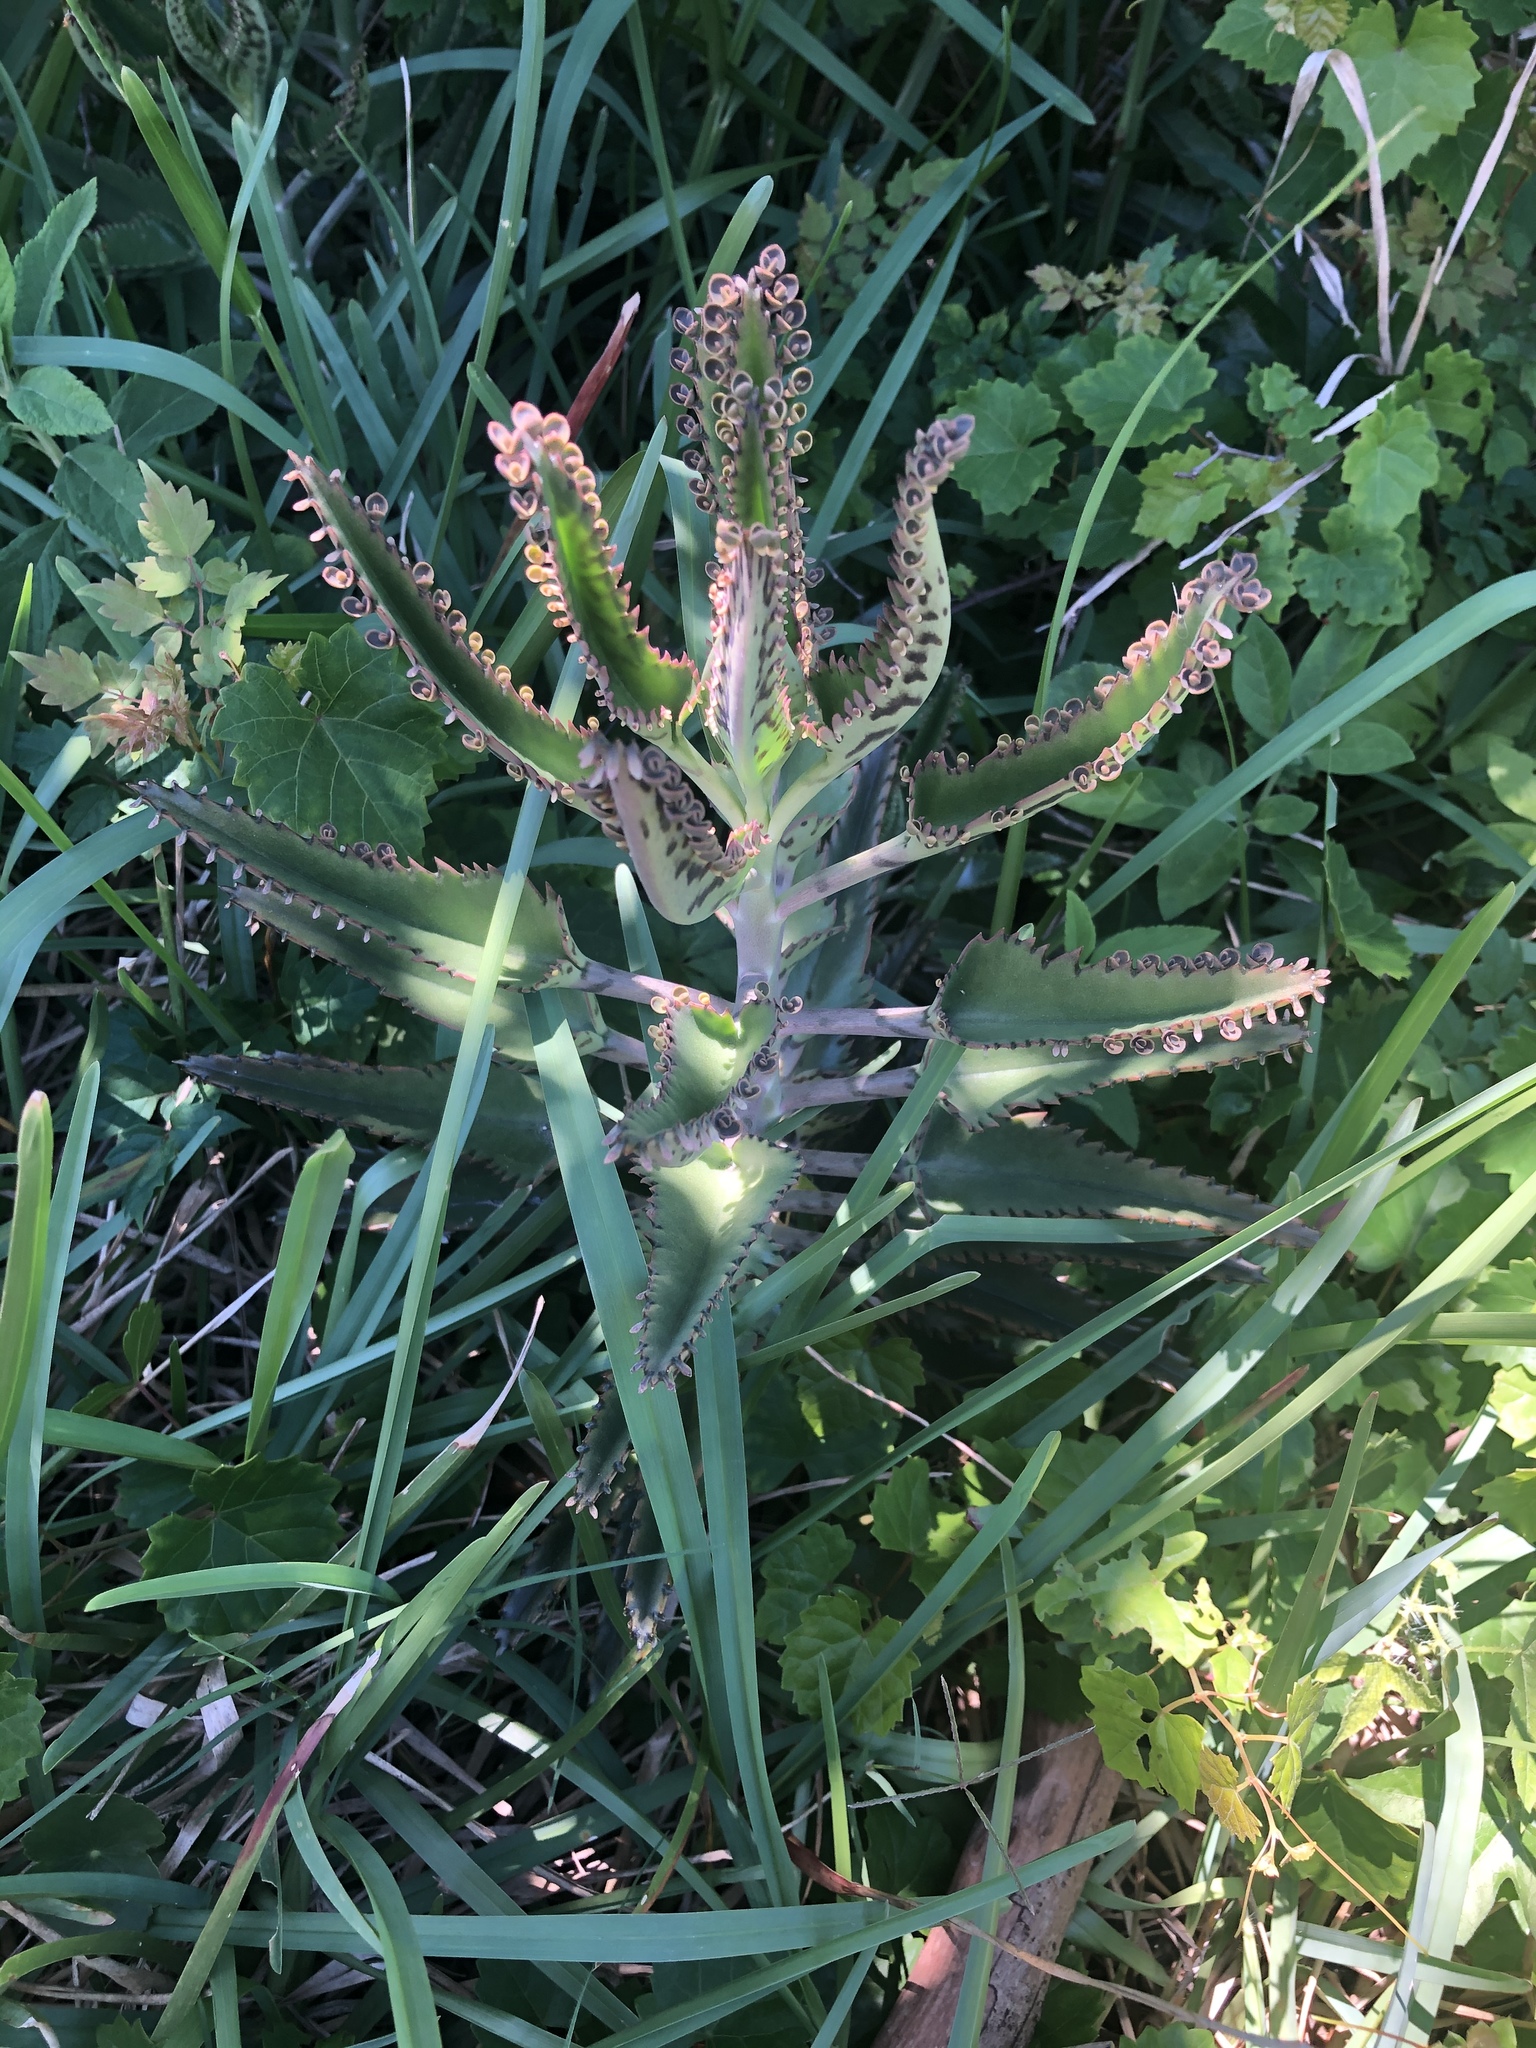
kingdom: Plantae
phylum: Tracheophyta
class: Magnoliopsida
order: Saxifragales
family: Crassulaceae
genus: Kalanchoe
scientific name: Kalanchoe houghtonii
